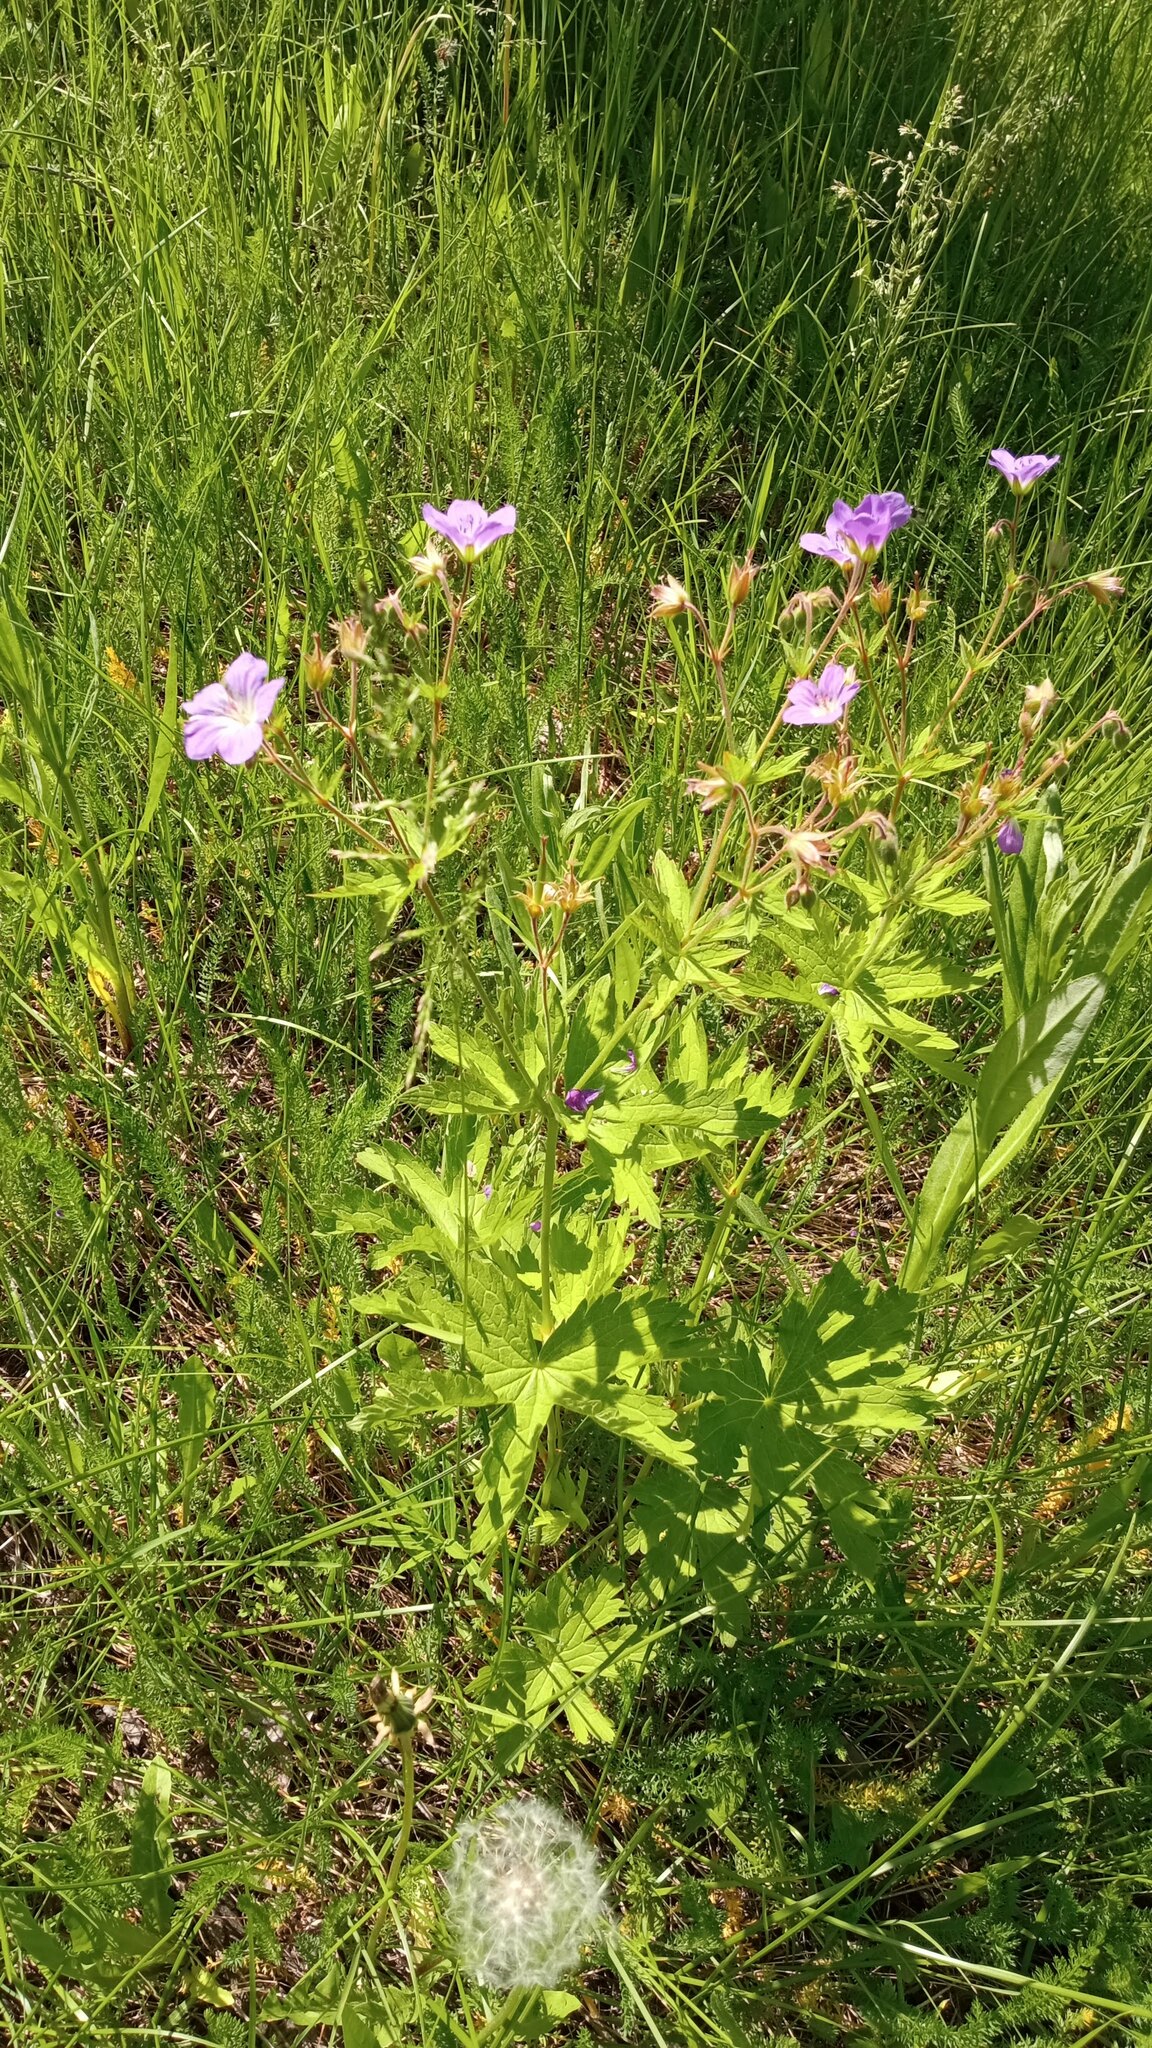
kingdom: Plantae
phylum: Tracheophyta
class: Magnoliopsida
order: Geraniales
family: Geraniaceae
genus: Geranium
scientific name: Geranium sylvaticum
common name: Wood crane's-bill
